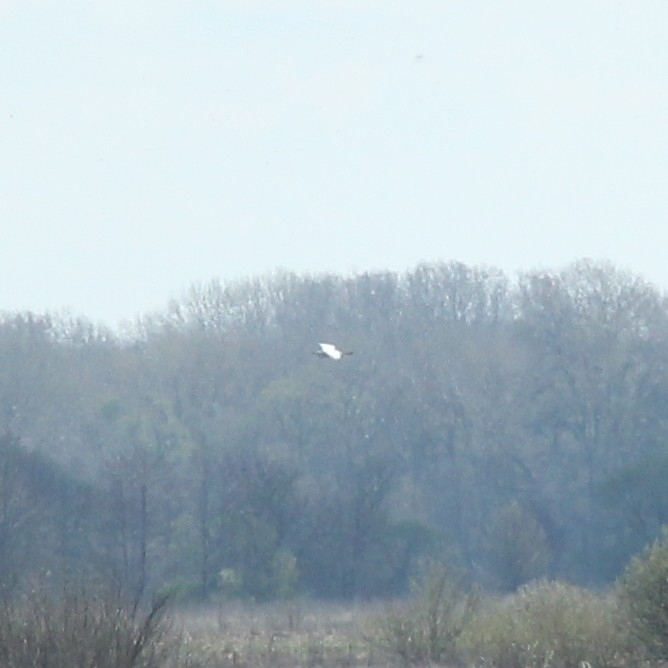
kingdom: Animalia
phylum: Chordata
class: Aves
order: Pelecaniformes
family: Ardeidae
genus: Ardea
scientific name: Ardea alba
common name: Great egret
